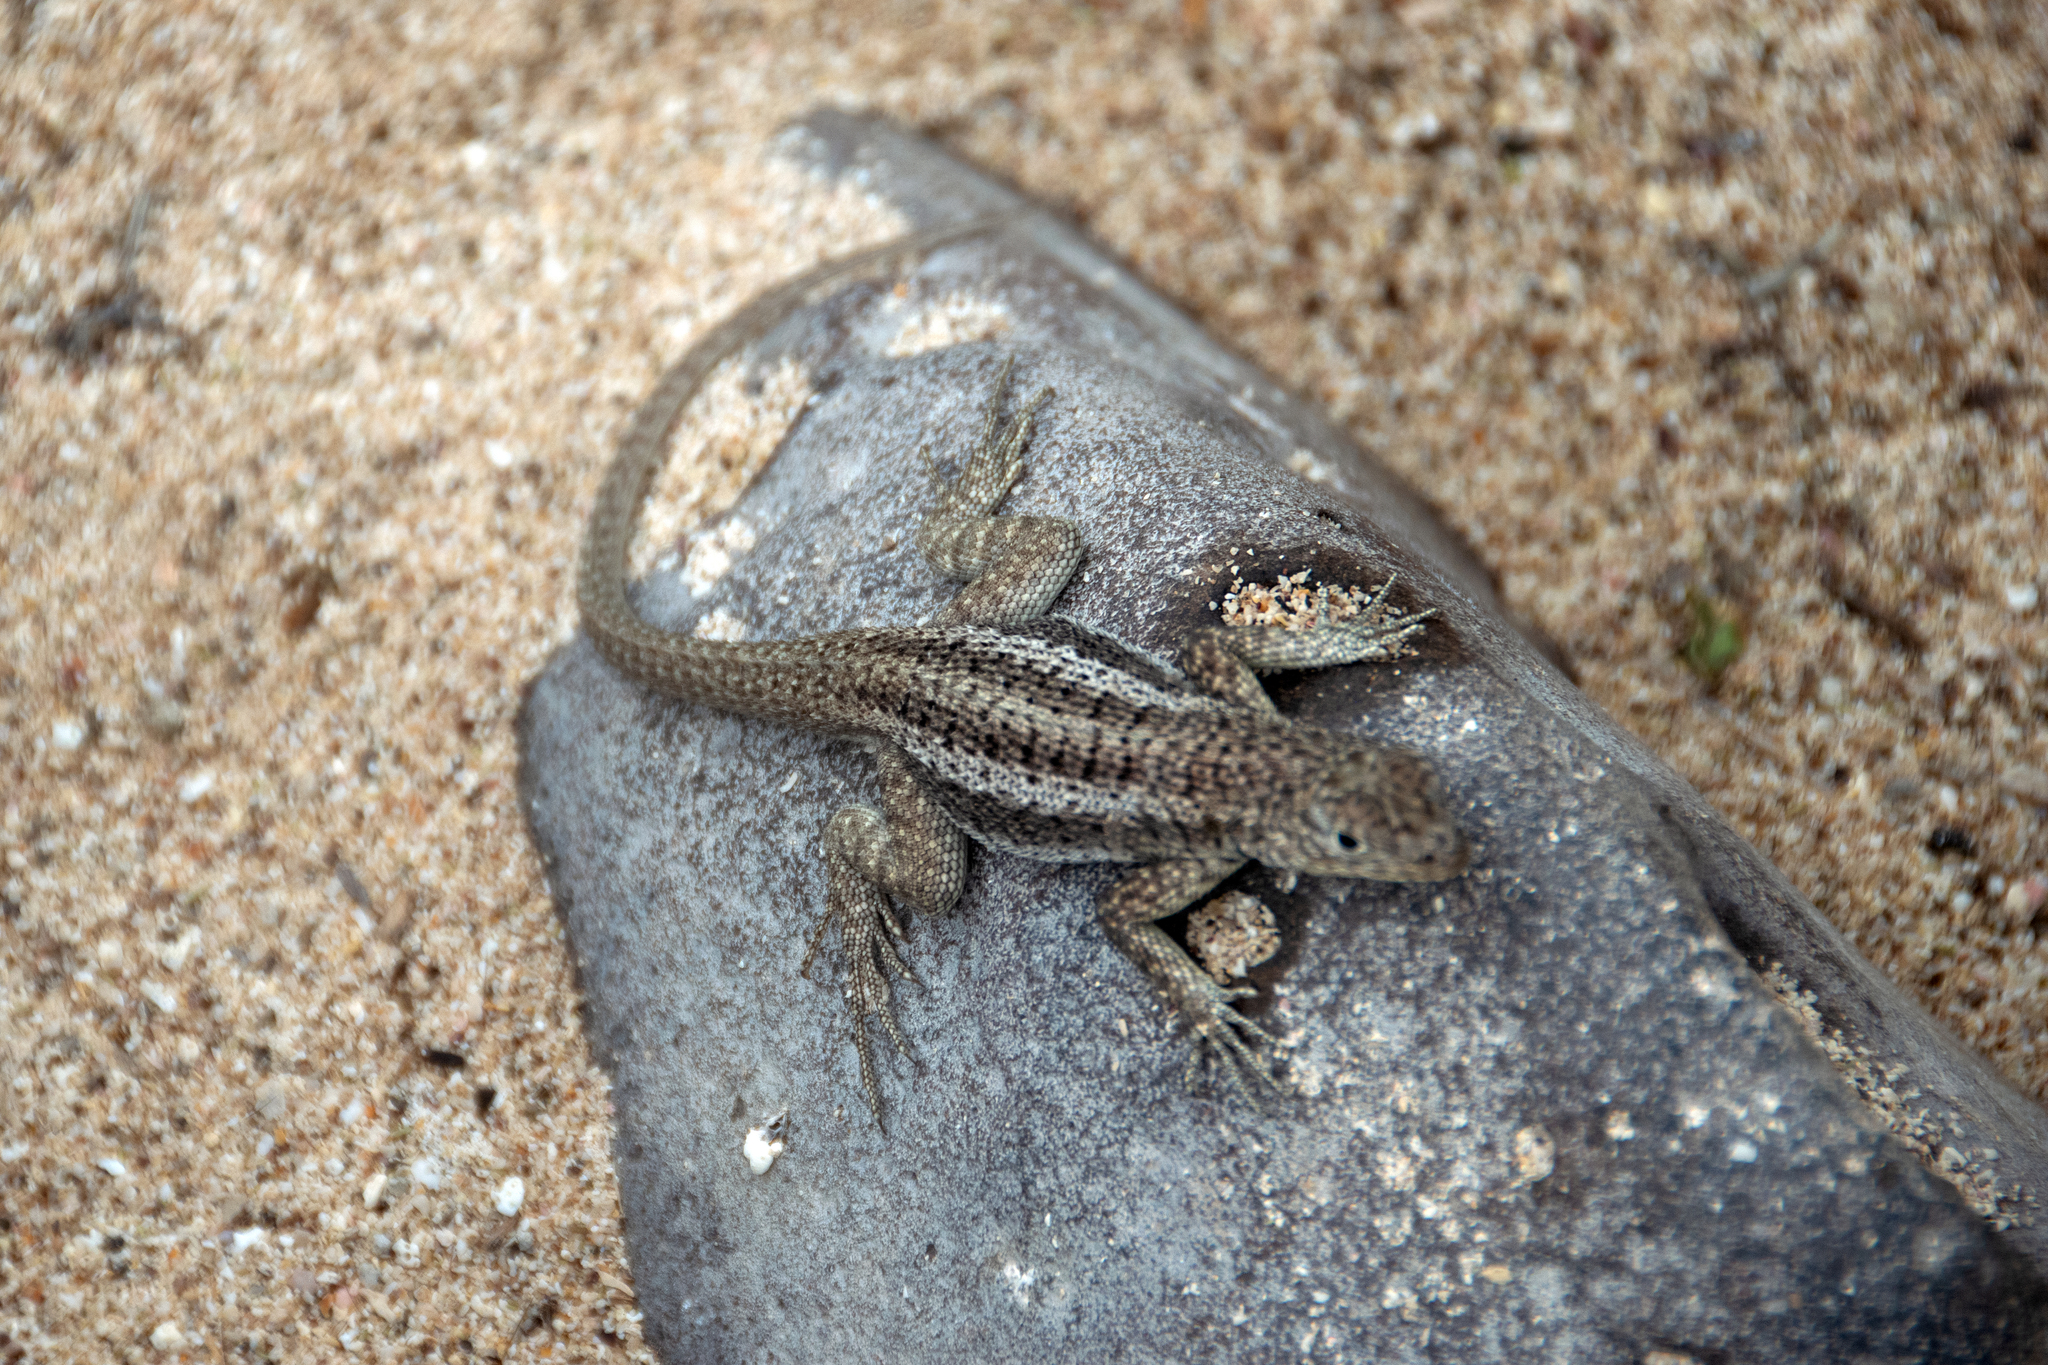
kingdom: Animalia
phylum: Chordata
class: Squamata
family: Tropiduridae
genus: Microlophus
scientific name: Microlophus barringtonensis
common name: Galapagos lava lizard
